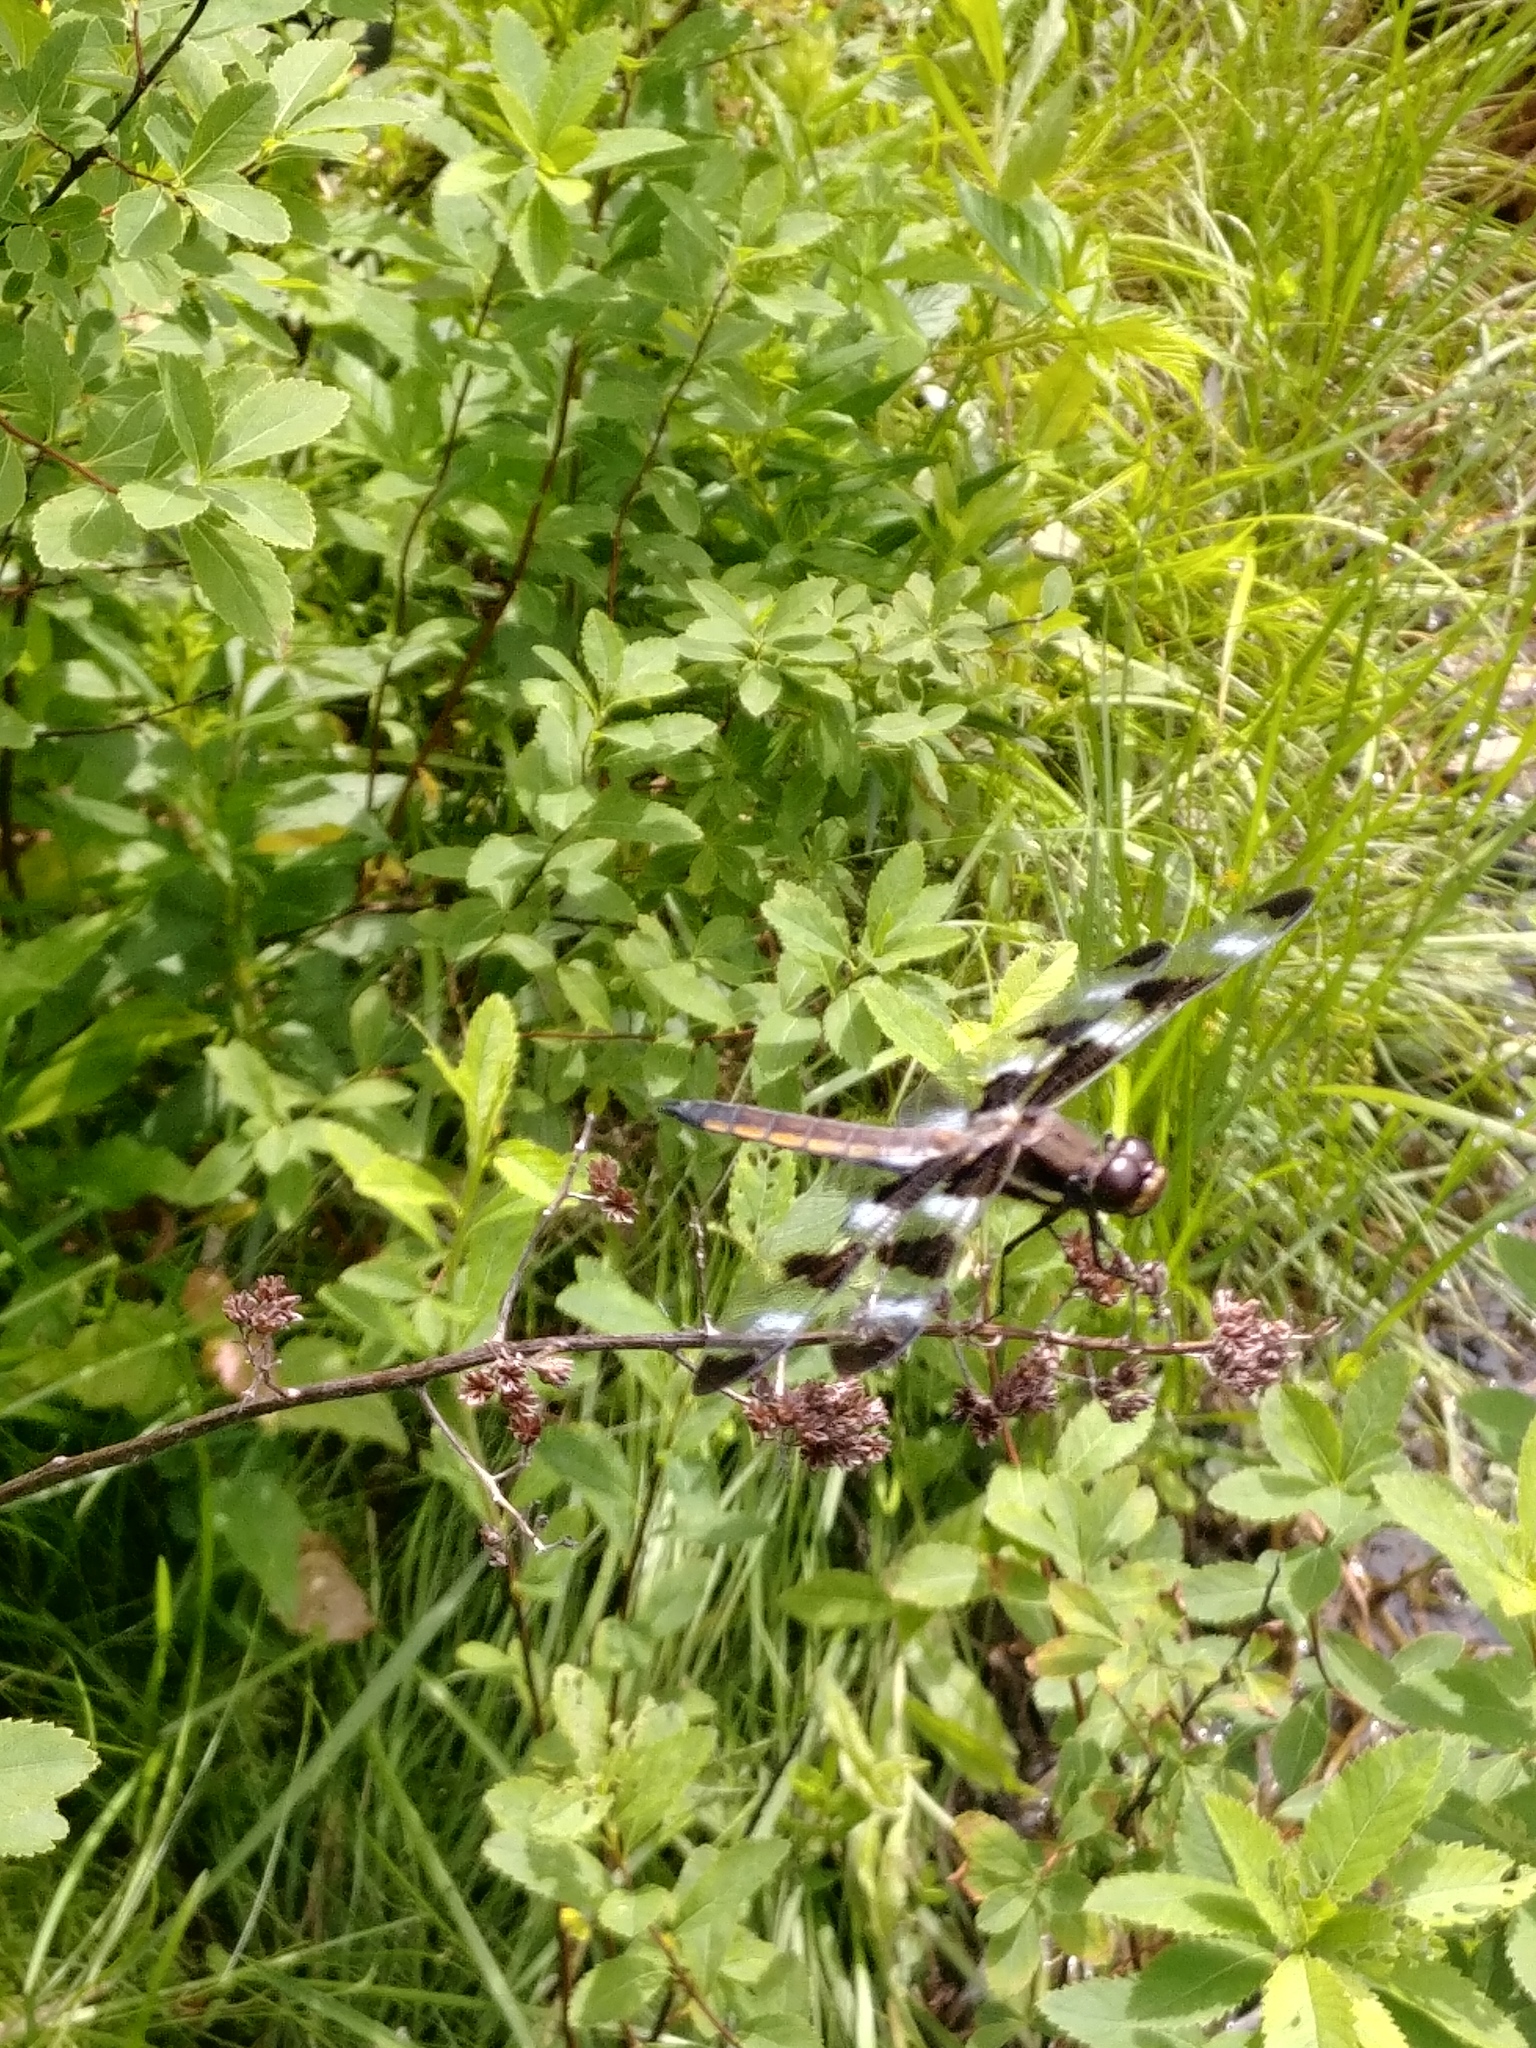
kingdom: Animalia
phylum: Arthropoda
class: Insecta
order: Odonata
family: Libellulidae
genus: Libellula
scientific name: Libellula pulchella
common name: Twelve-spotted skimmer
